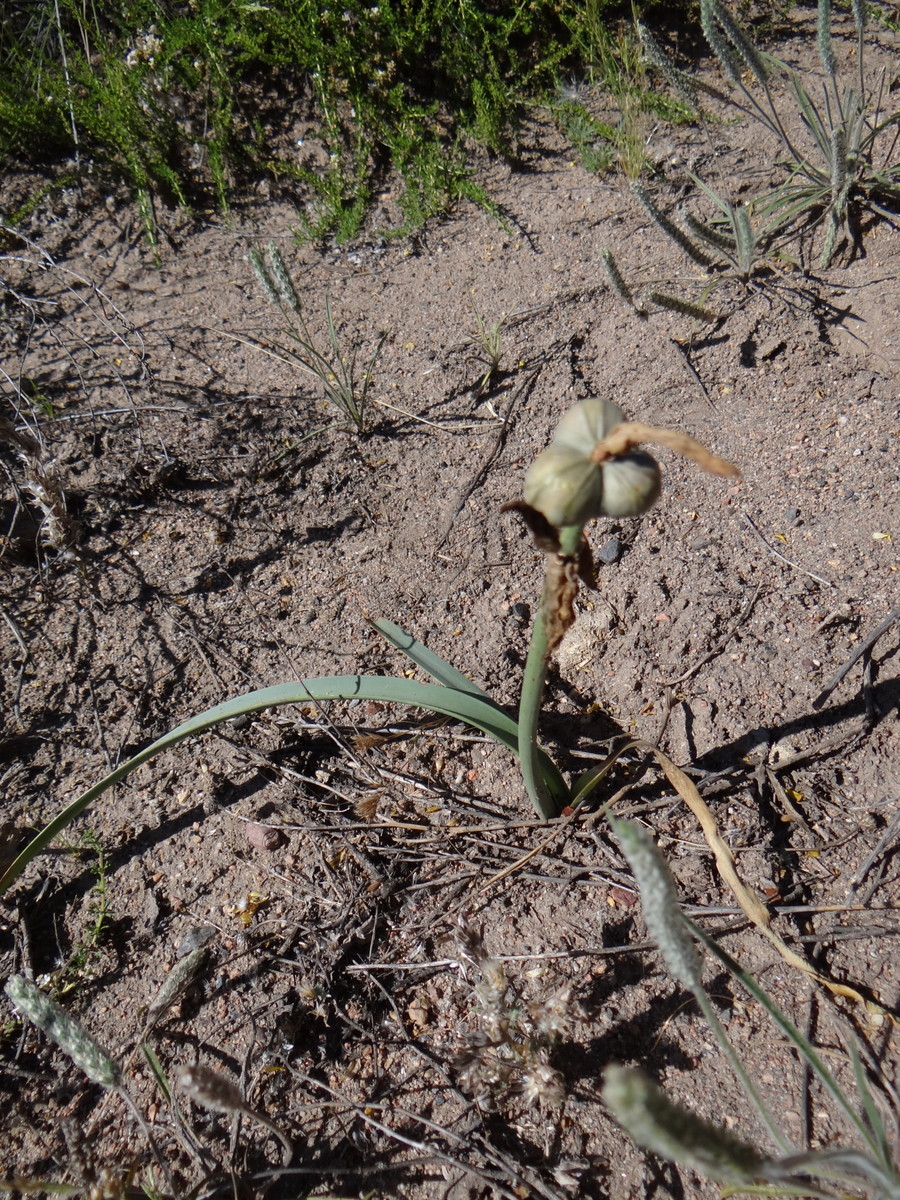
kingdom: Plantae
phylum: Tracheophyta
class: Liliopsida
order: Asparagales
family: Amaryllidaceae
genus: Zephyranthes
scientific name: Zephyranthes gilliesiana
